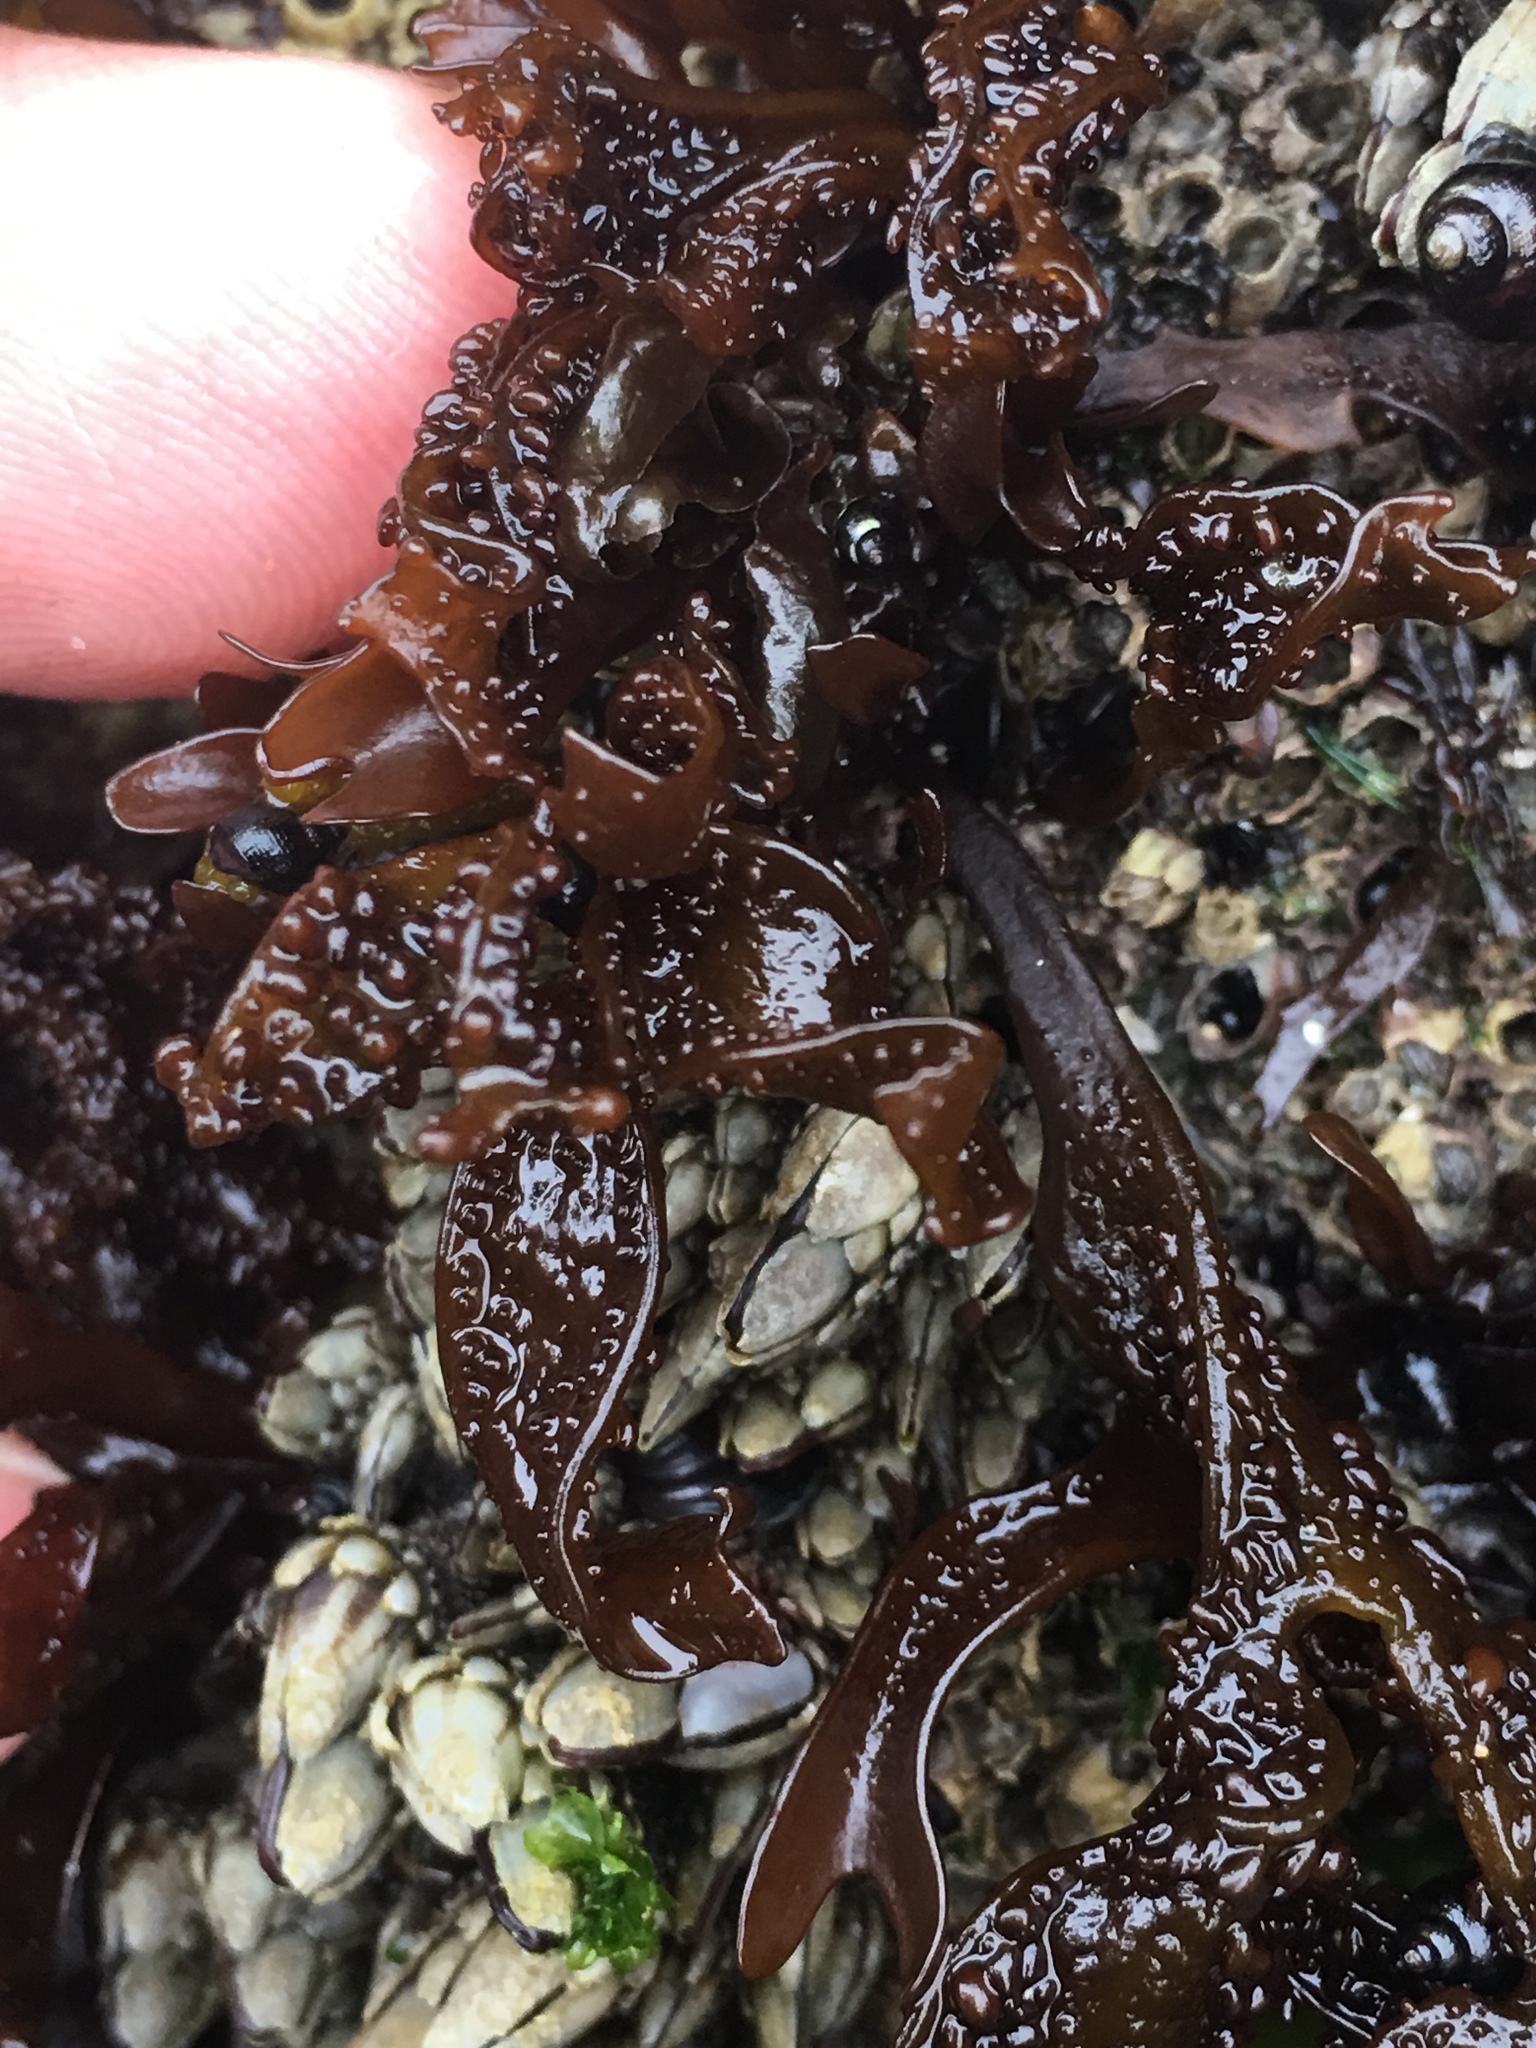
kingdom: Plantae
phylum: Rhodophyta
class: Florideophyceae
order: Gigartinales
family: Phyllophoraceae
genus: Mastocarpus
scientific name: Mastocarpus papillatus
